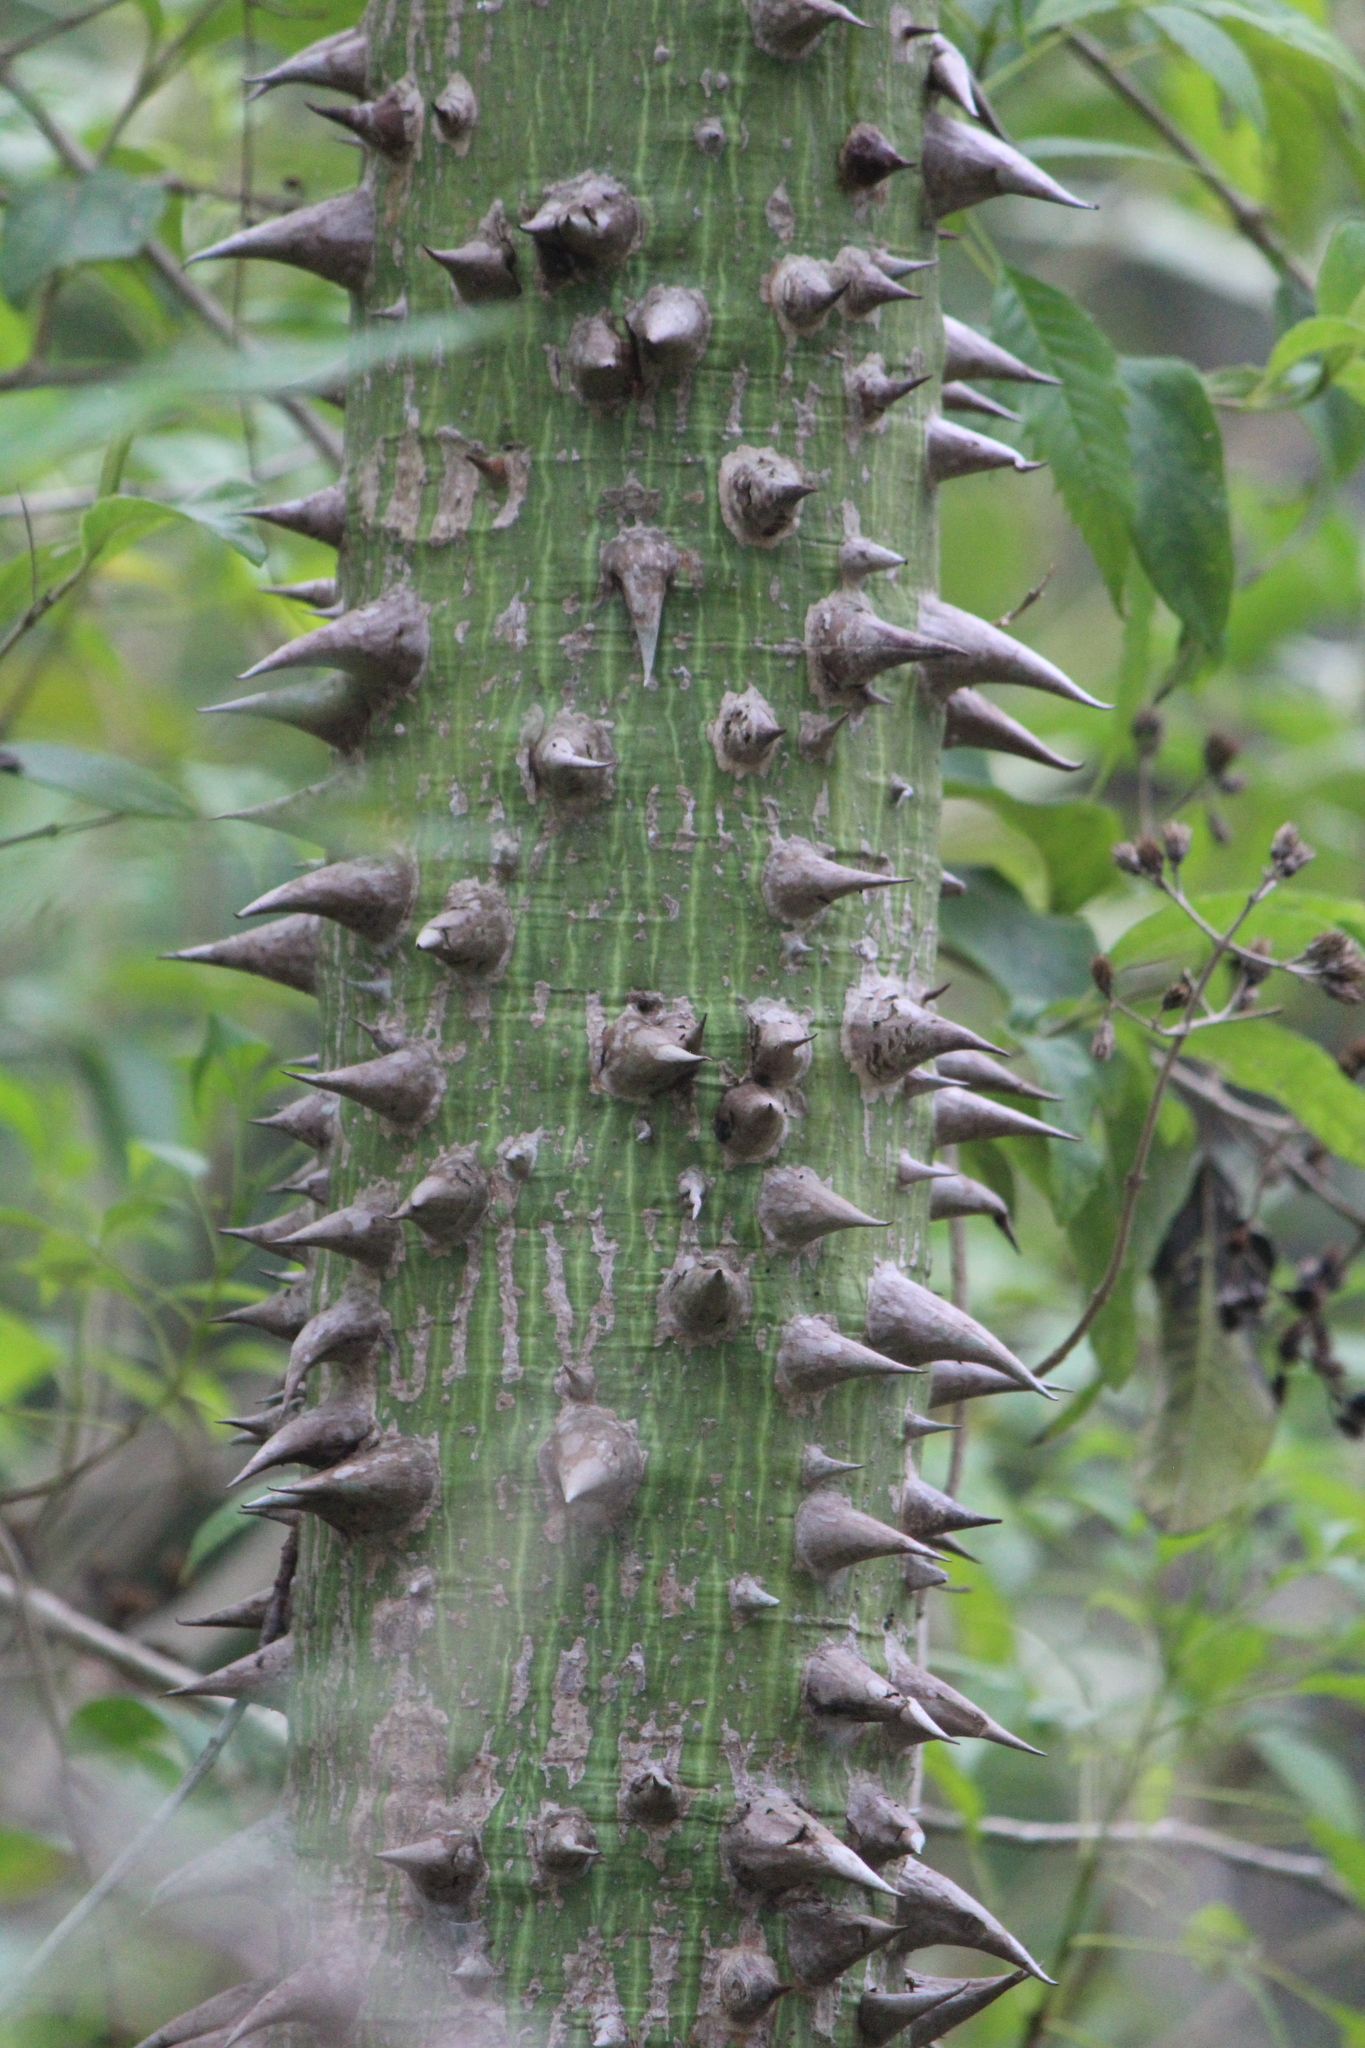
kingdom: Plantae
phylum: Tracheophyta
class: Magnoliopsida
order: Malvales
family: Malvaceae
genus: Ceiba
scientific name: Ceiba pentandra
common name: Kapok
